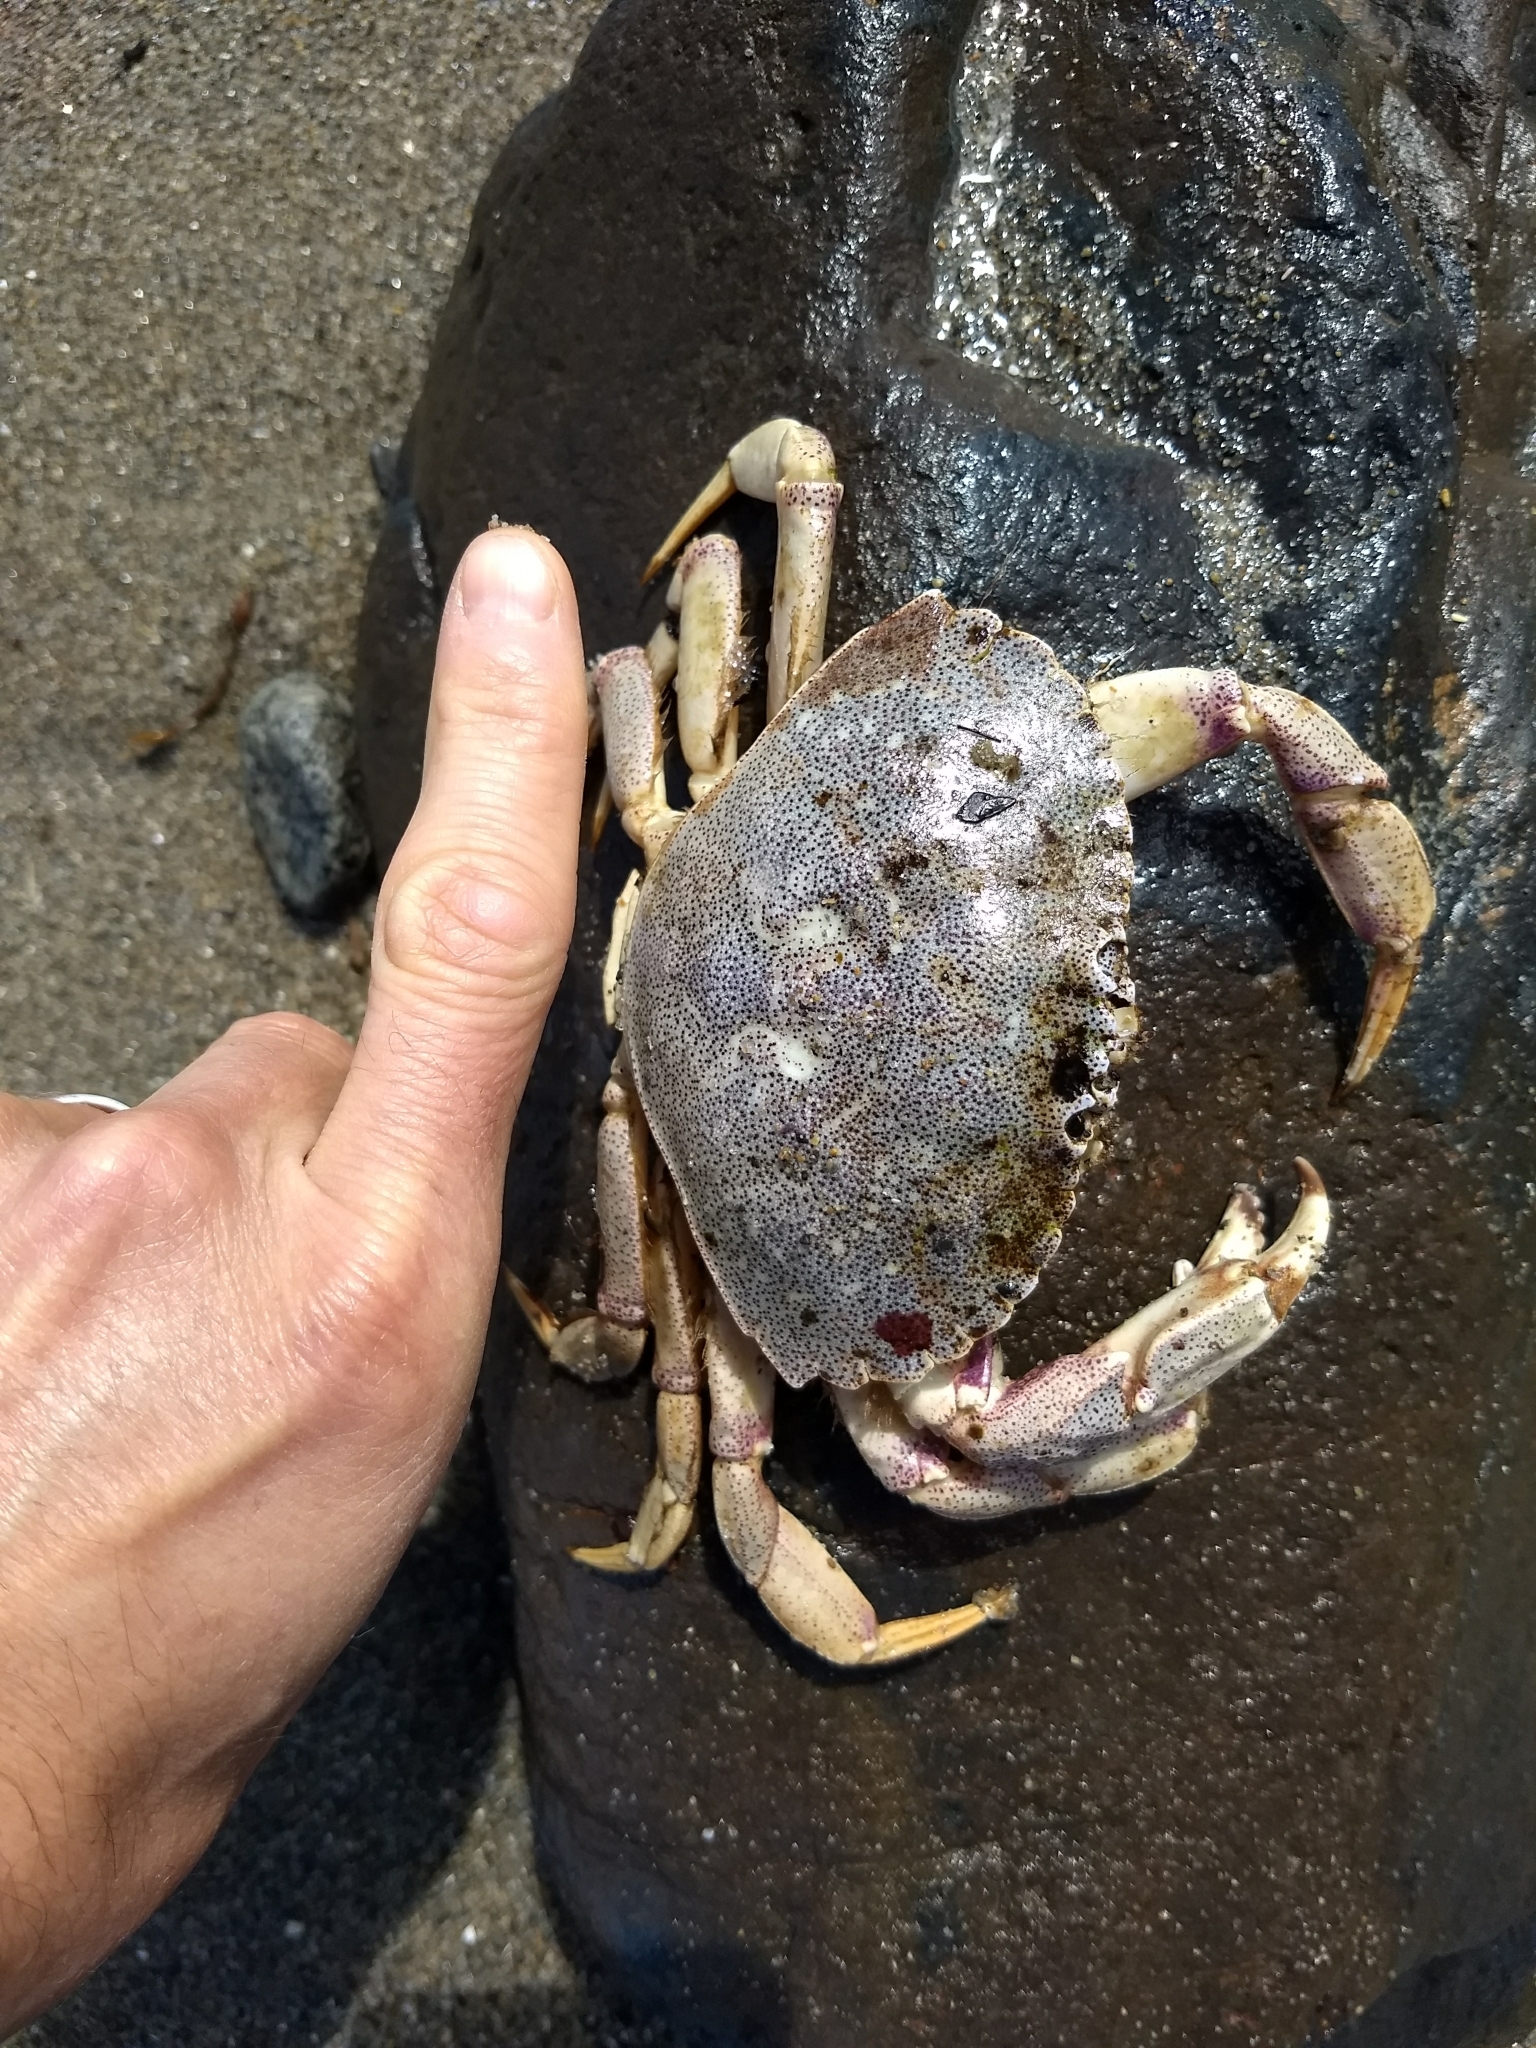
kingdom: Animalia
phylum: Arthropoda
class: Malacostraca
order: Decapoda
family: Cancridae
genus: Cancer
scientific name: Cancer irroratus
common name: Atlantic rock crab
